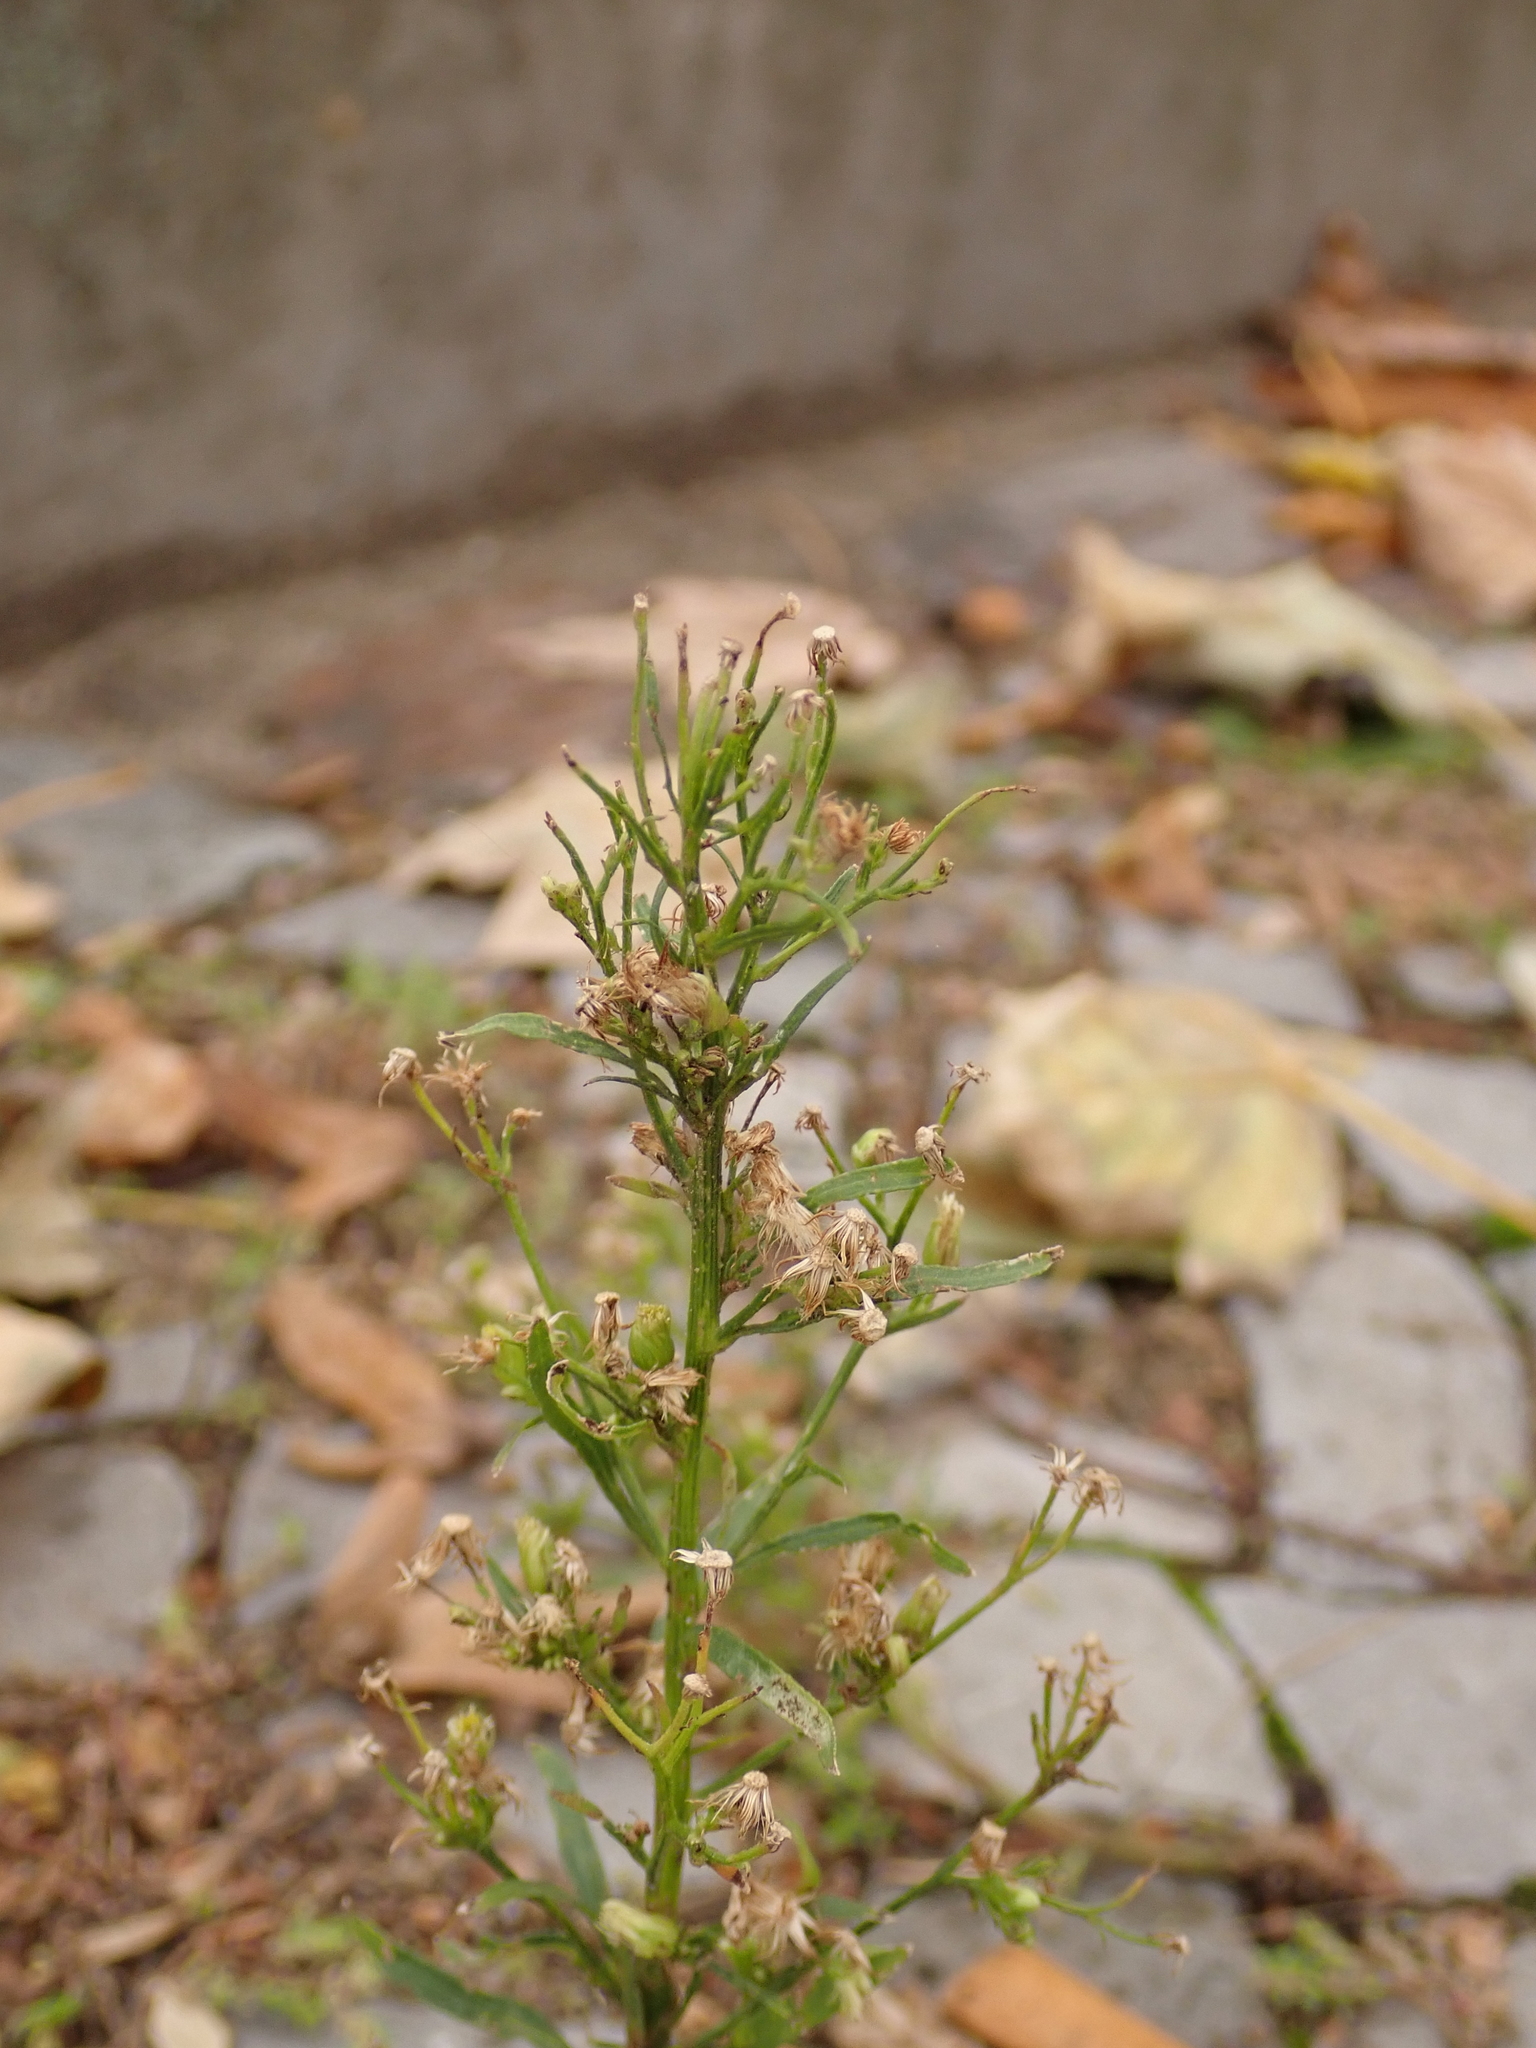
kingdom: Plantae
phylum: Tracheophyta
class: Magnoliopsida
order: Asterales
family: Asteraceae
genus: Erigeron
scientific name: Erigeron canadensis
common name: Canadian fleabane
